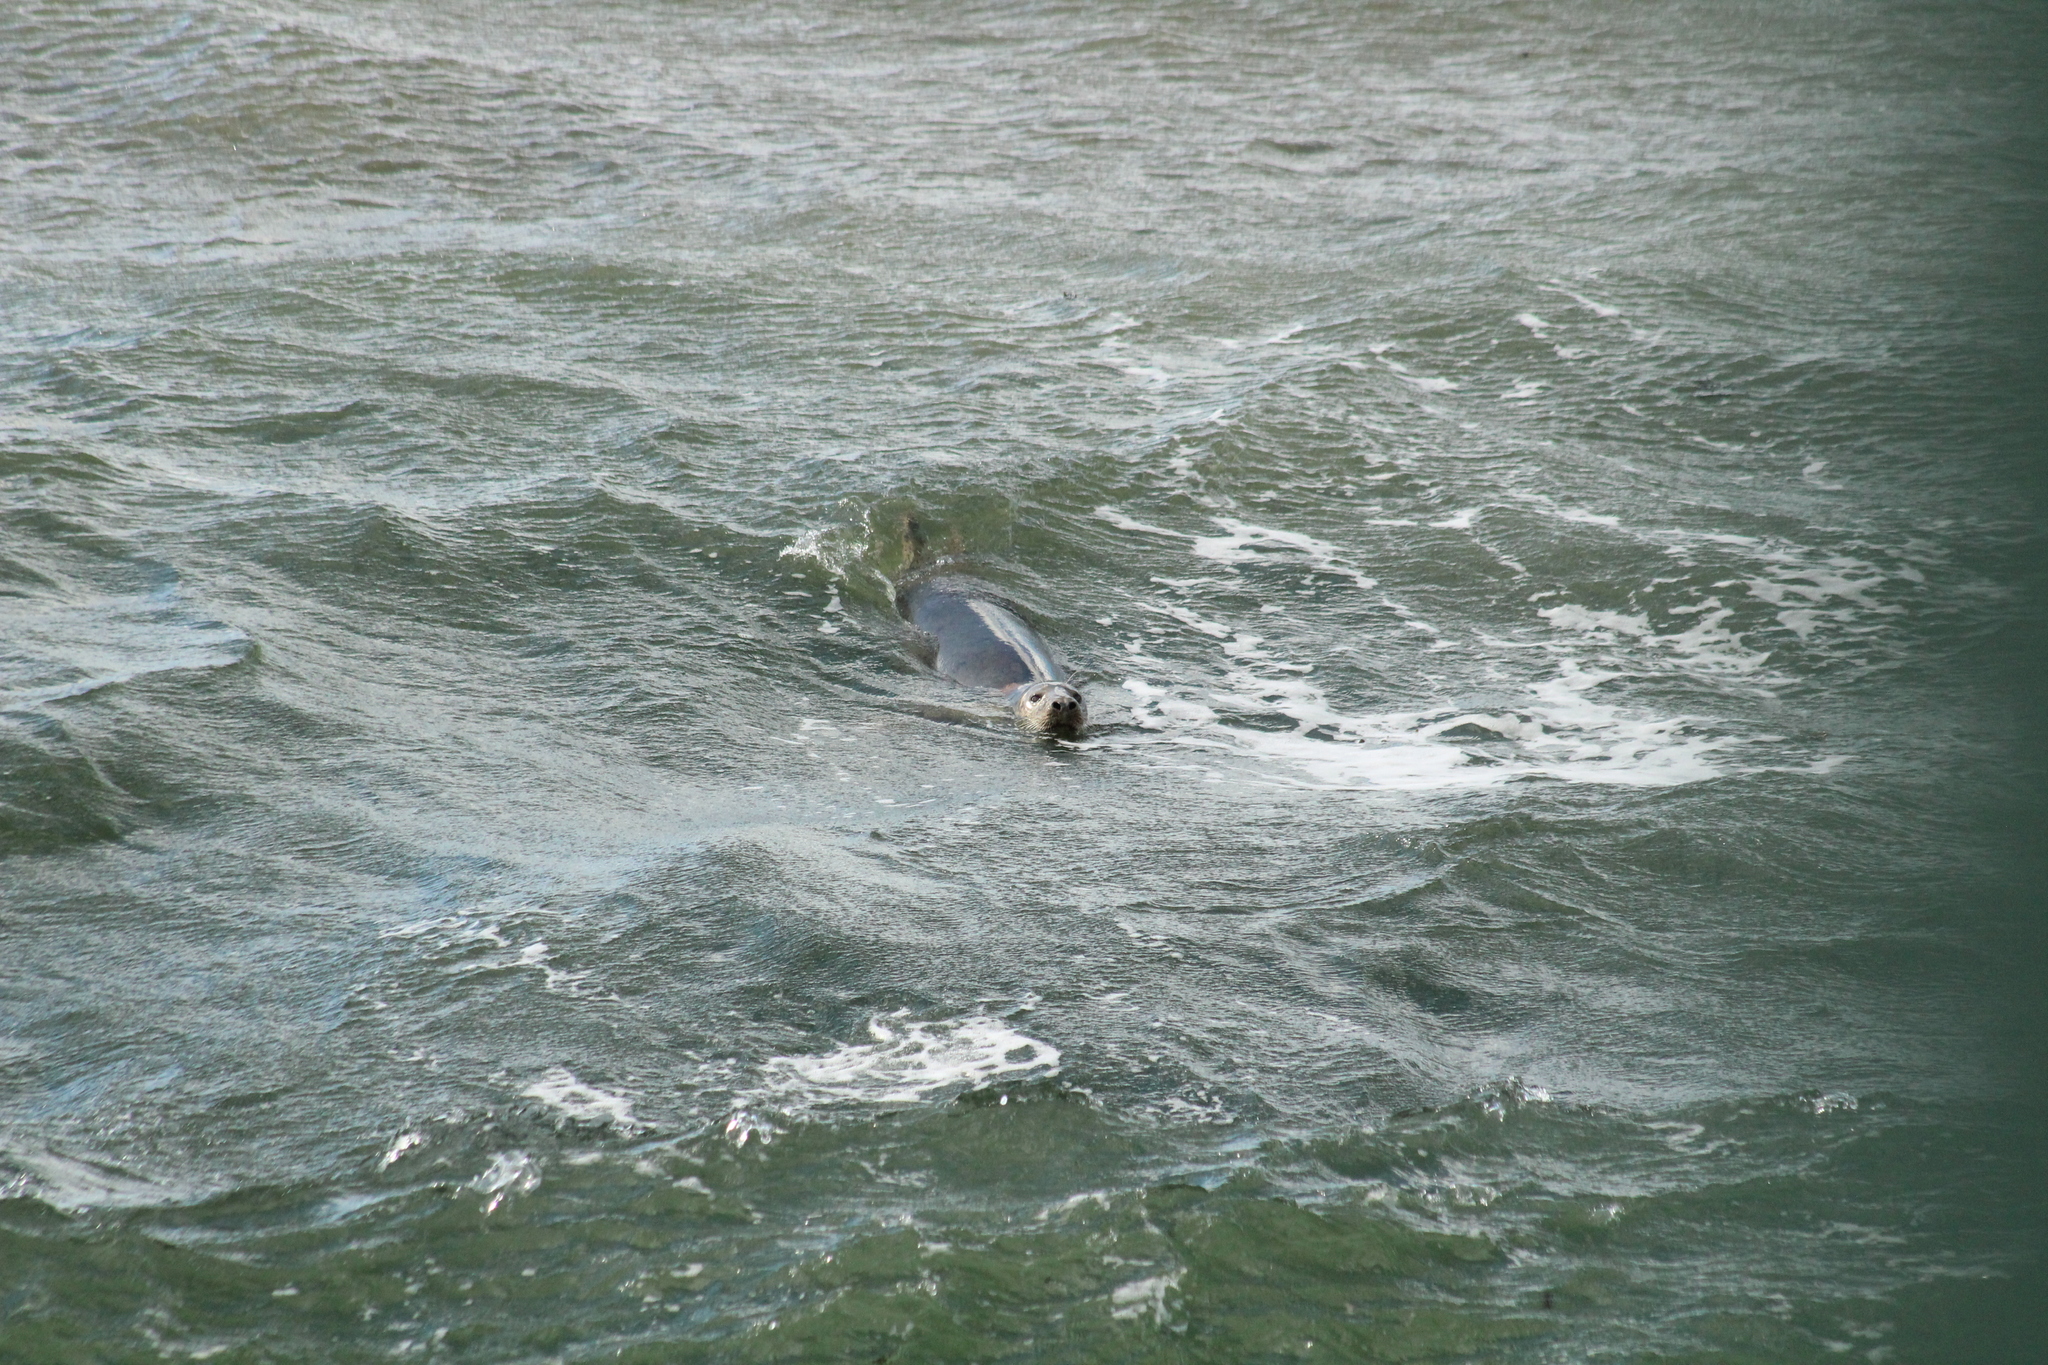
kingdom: Animalia
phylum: Chordata
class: Mammalia
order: Carnivora
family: Phocidae
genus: Halichoerus
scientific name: Halichoerus grypus
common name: Grey seal
